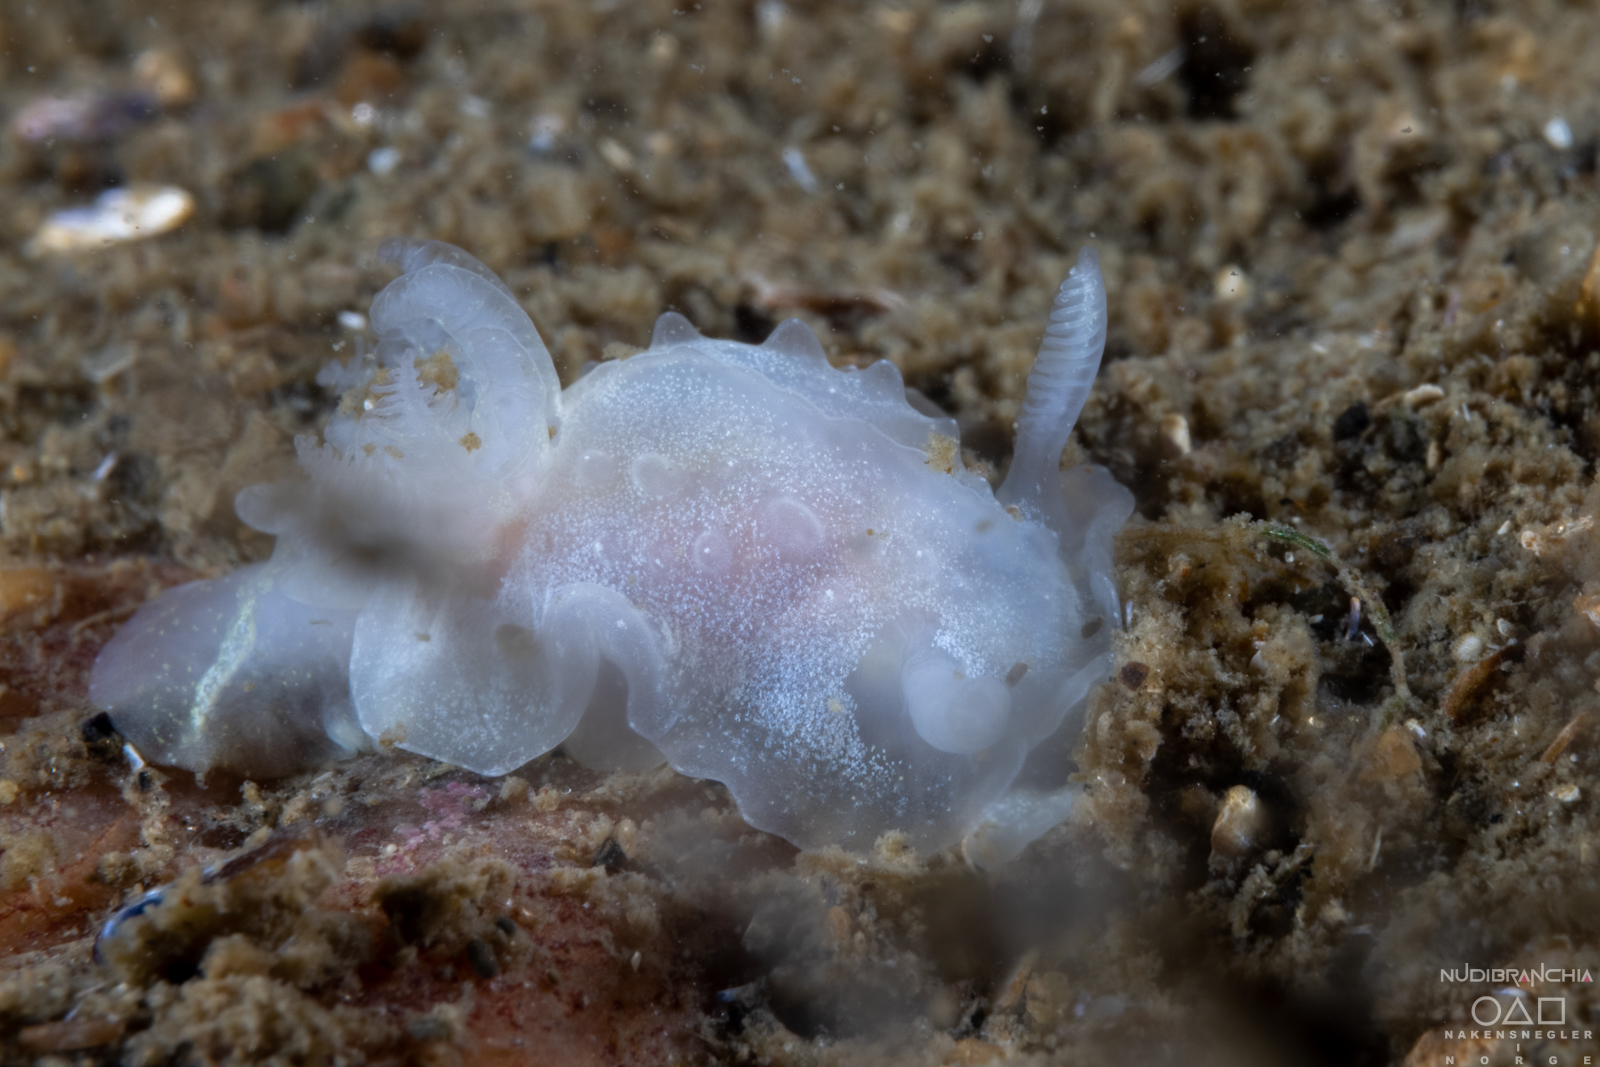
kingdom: Animalia
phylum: Mollusca
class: Gastropoda
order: Nudibranchia
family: Goniodorididae
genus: Okenia
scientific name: Okenia
